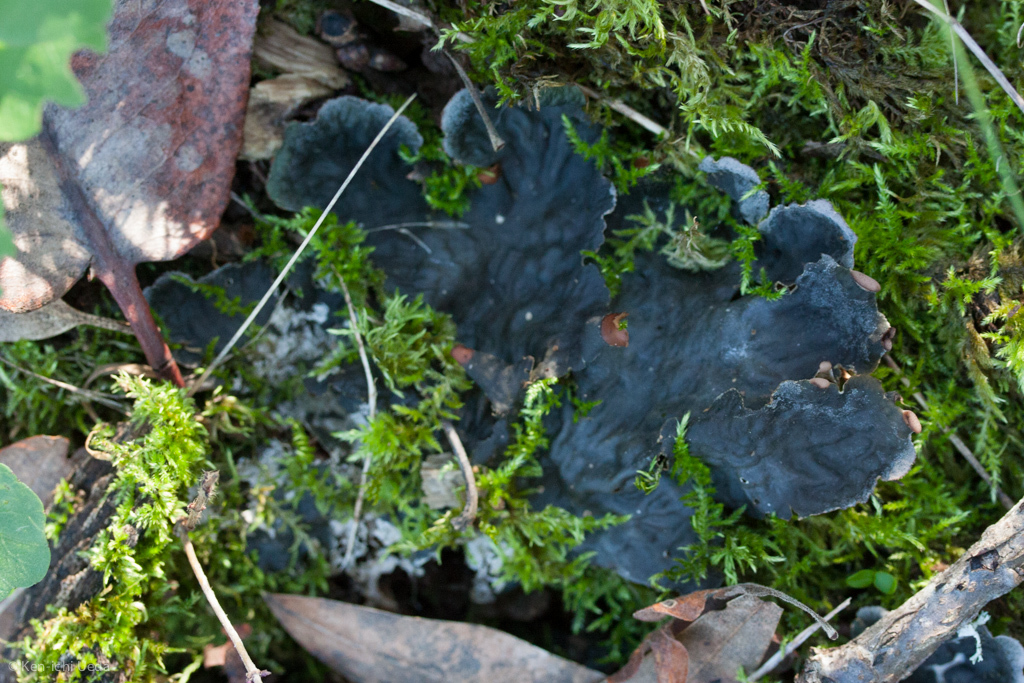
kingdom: Fungi
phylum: Ascomycota
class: Lecanoromycetes
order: Peltigerales
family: Peltigeraceae
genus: Peltigera
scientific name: Peltigera membranacea
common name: Membranous pelt lichen
